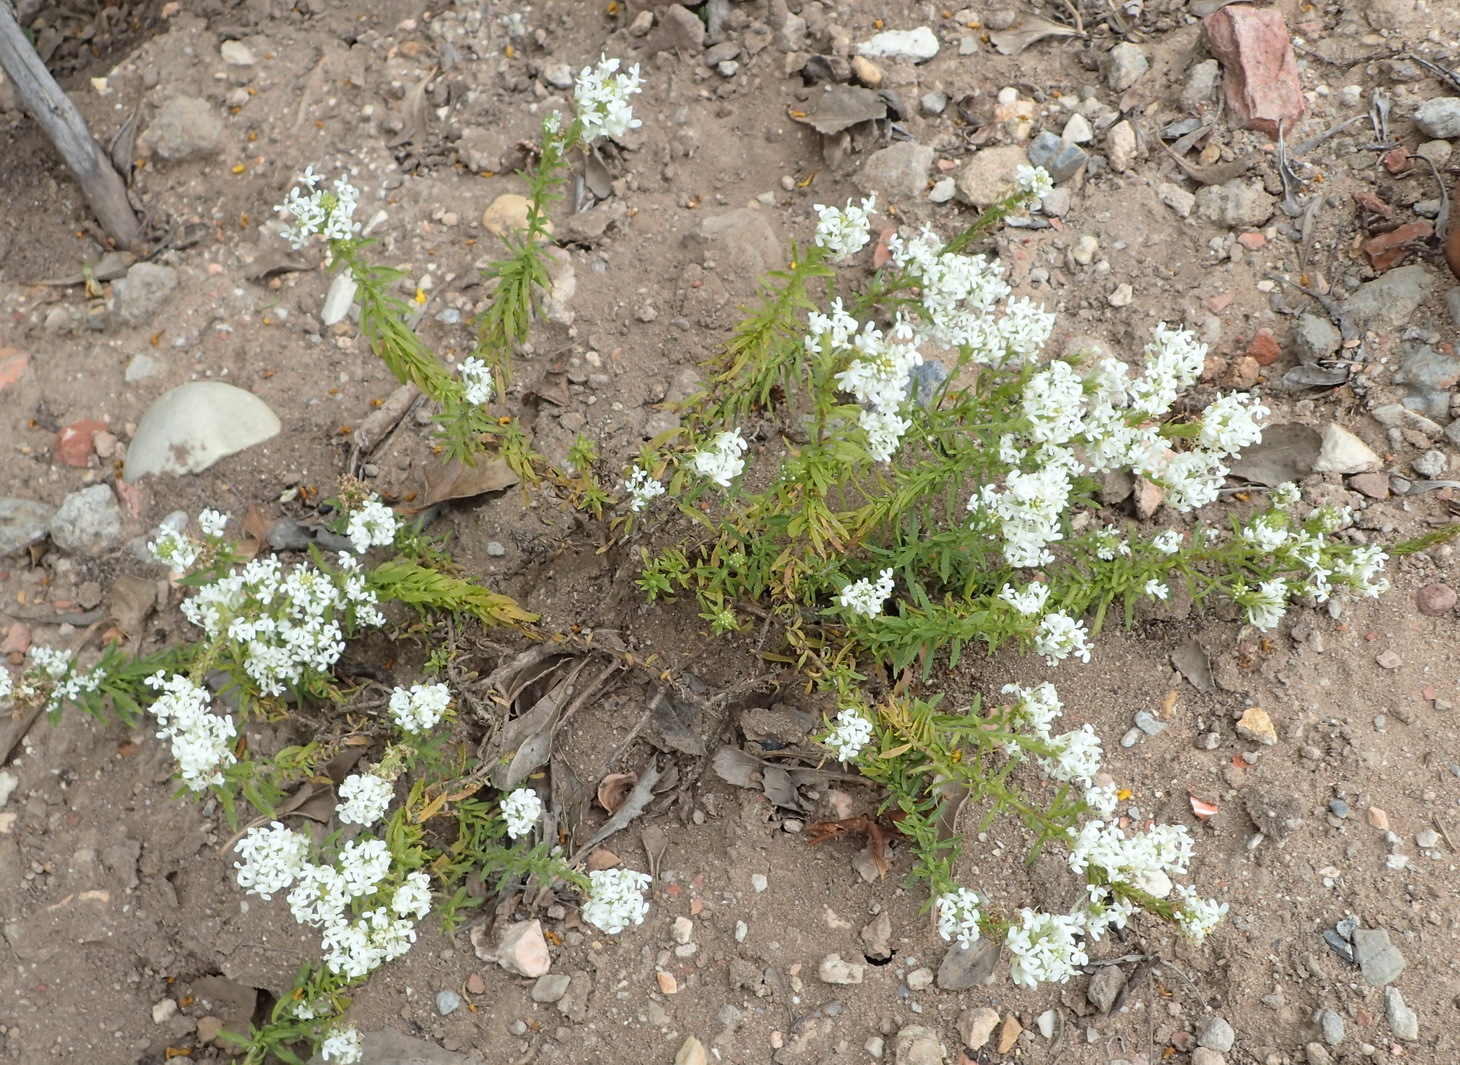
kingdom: Plantae
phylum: Tracheophyta
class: Magnoliopsida
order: Lamiales
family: Scrophulariaceae
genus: Dischisma
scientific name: Dischisma ciliatum
